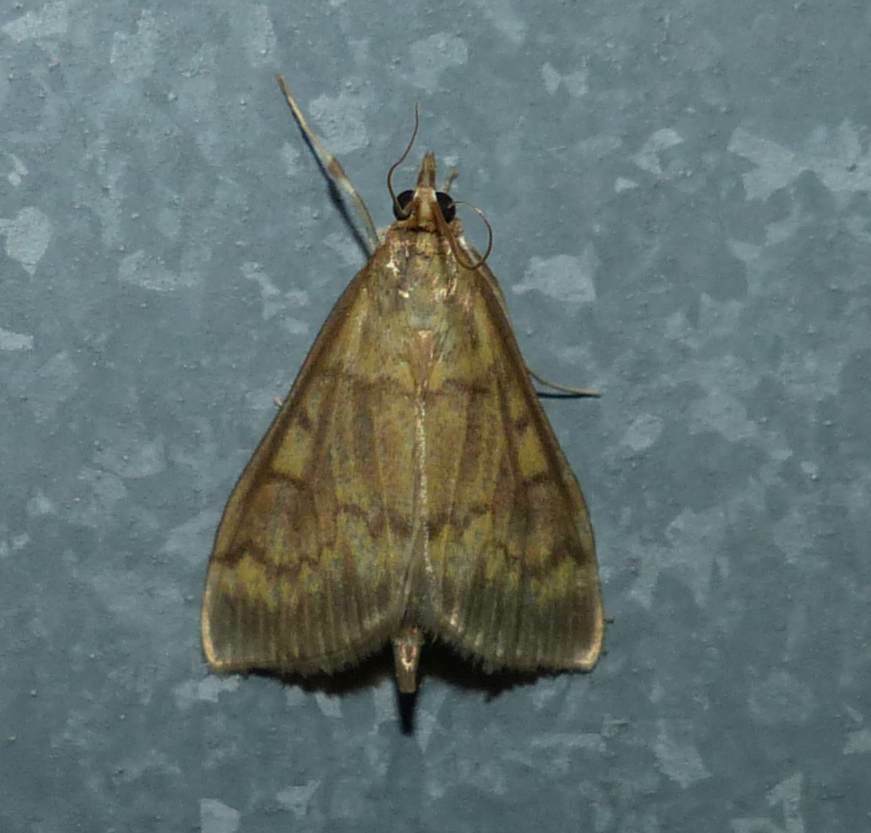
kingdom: Animalia
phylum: Arthropoda
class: Insecta
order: Lepidoptera
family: Crambidae
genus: Ostrinia
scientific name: Ostrinia nubilalis
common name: European corn borer
